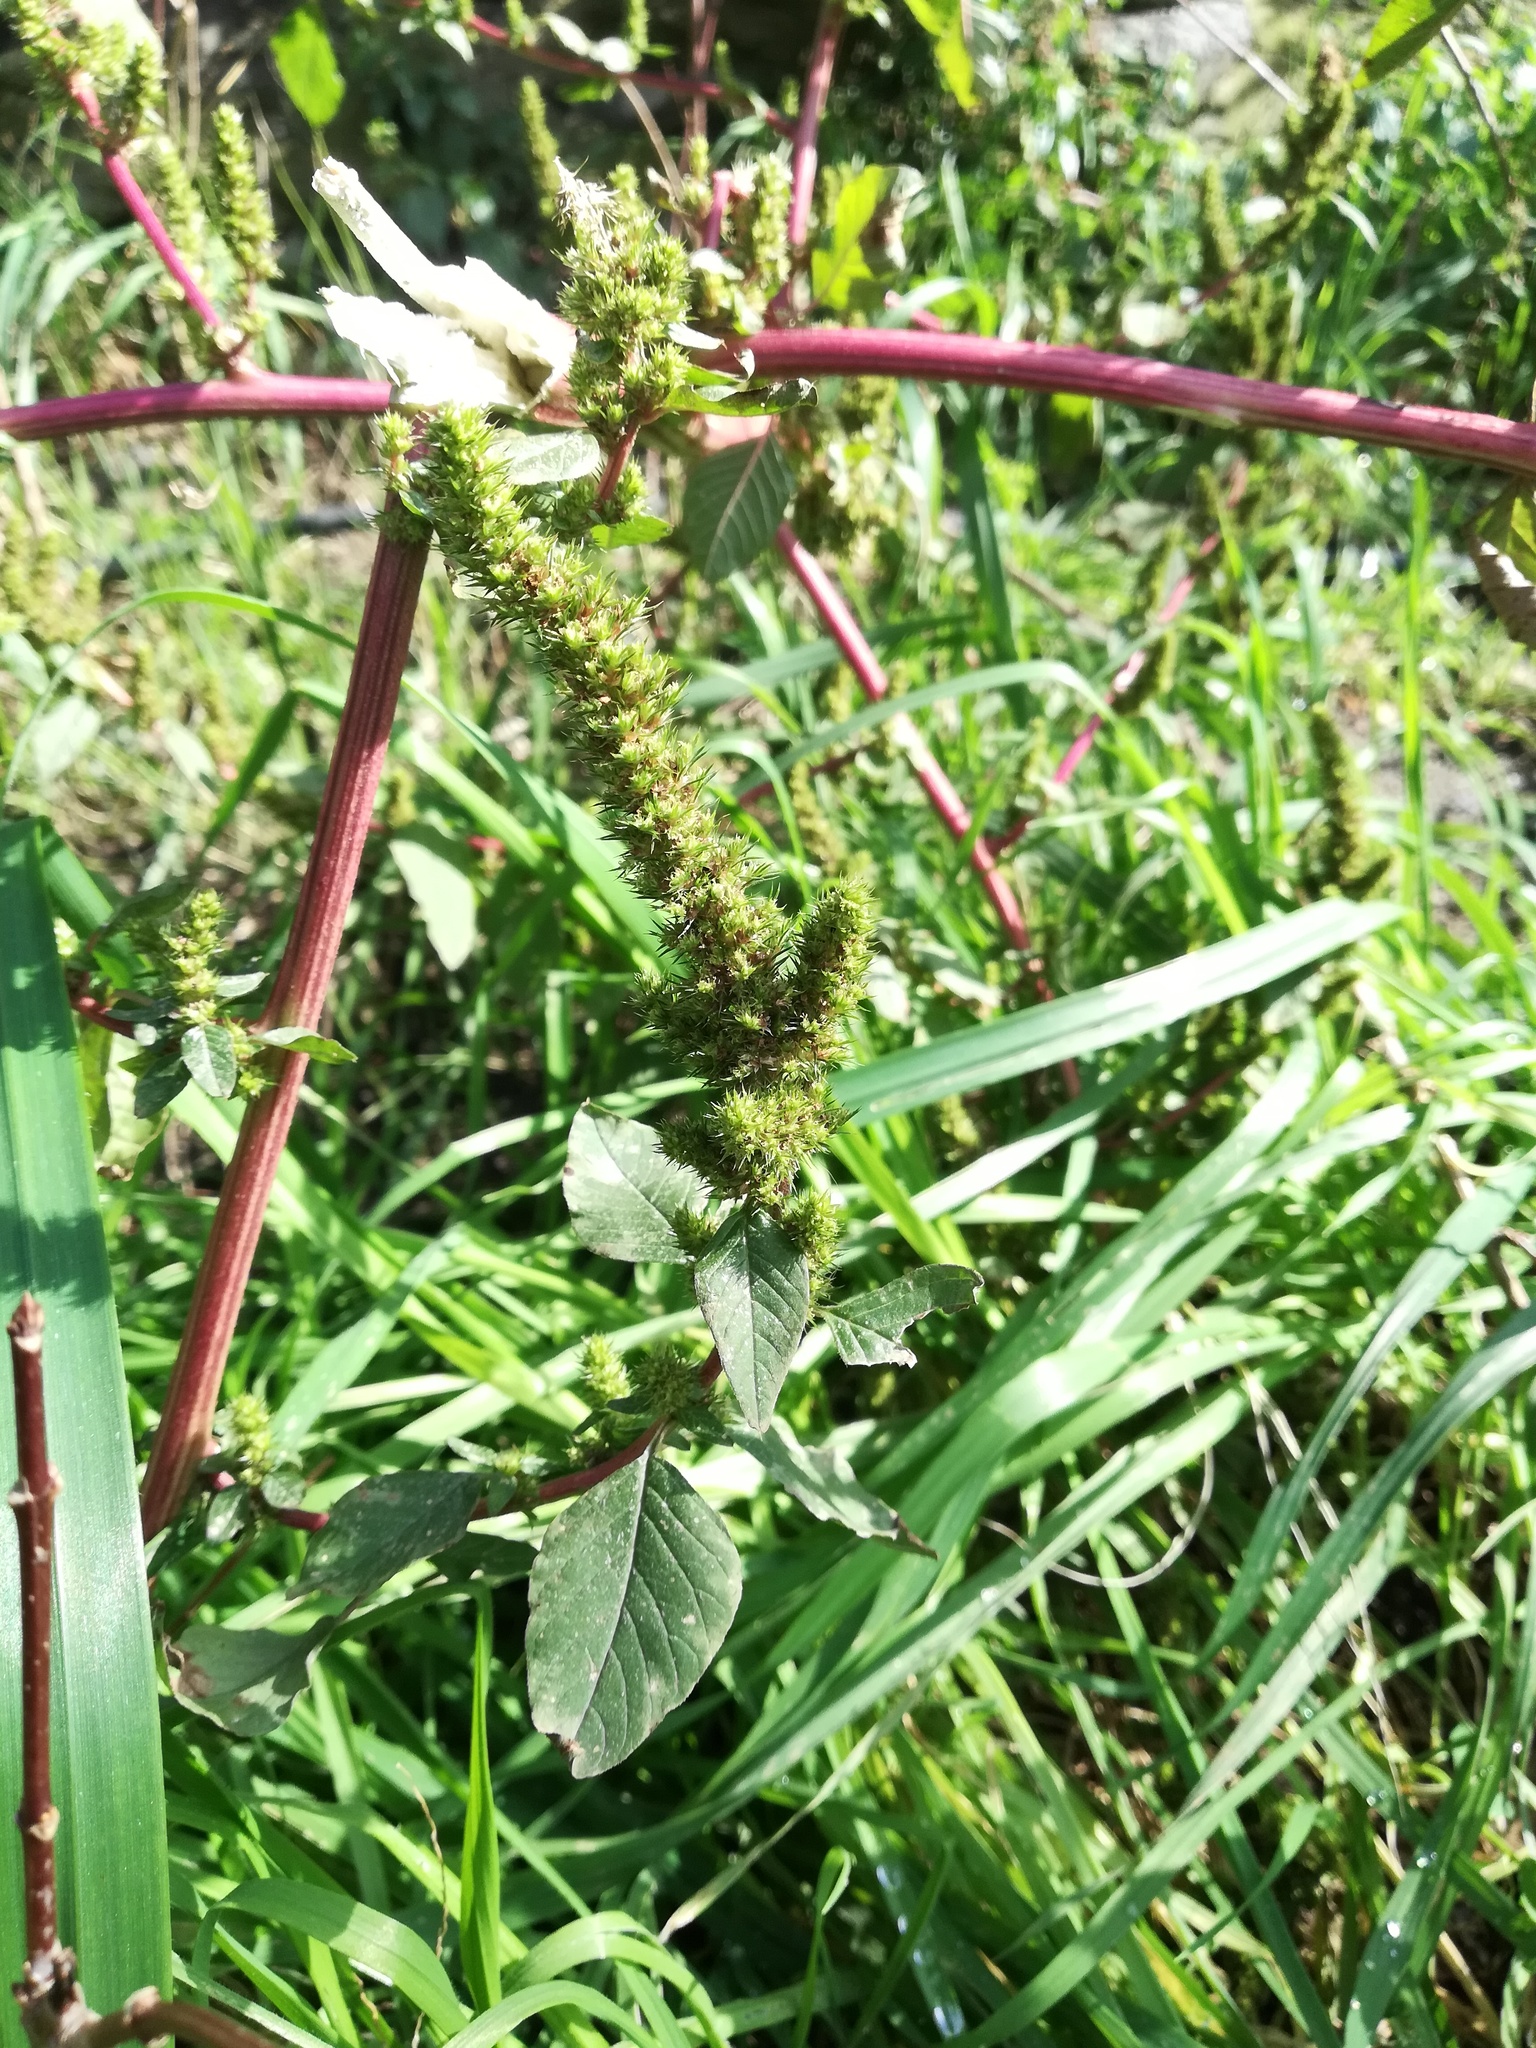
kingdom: Plantae
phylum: Tracheophyta
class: Magnoliopsida
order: Caryophyllales
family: Amaranthaceae
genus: Amaranthus
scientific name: Amaranthus hybridus
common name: Green amaranth
